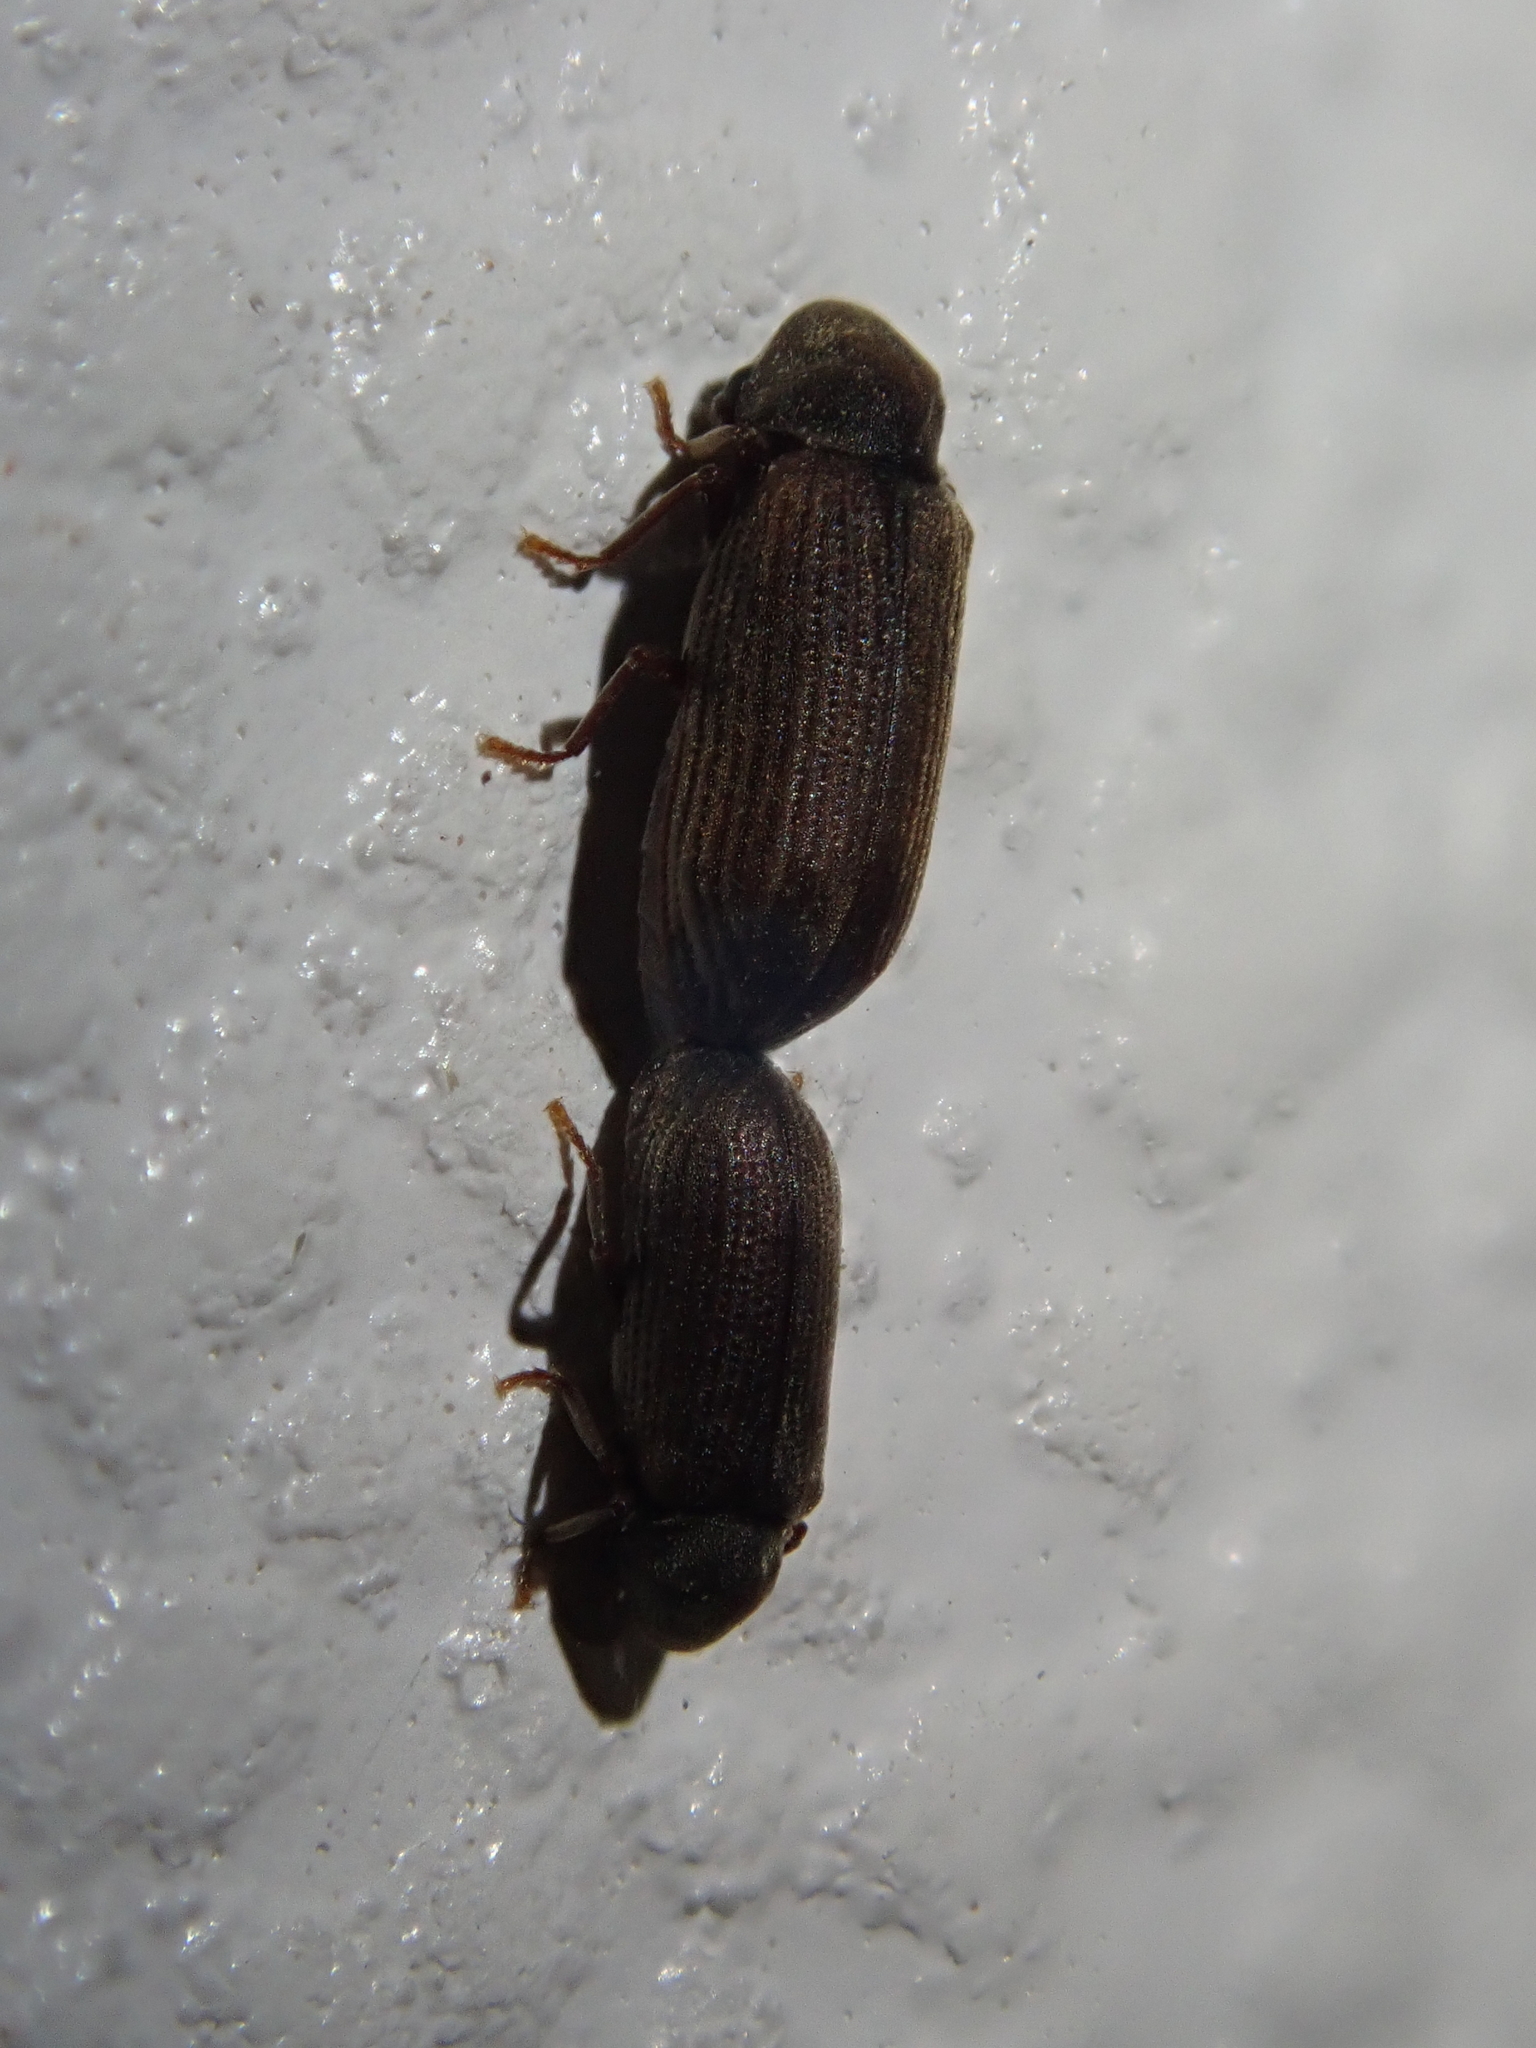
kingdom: Animalia
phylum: Arthropoda
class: Insecta
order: Coleoptera
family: Anobiidae
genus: Anobium
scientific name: Anobium punctatum
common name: Furniture beetle
